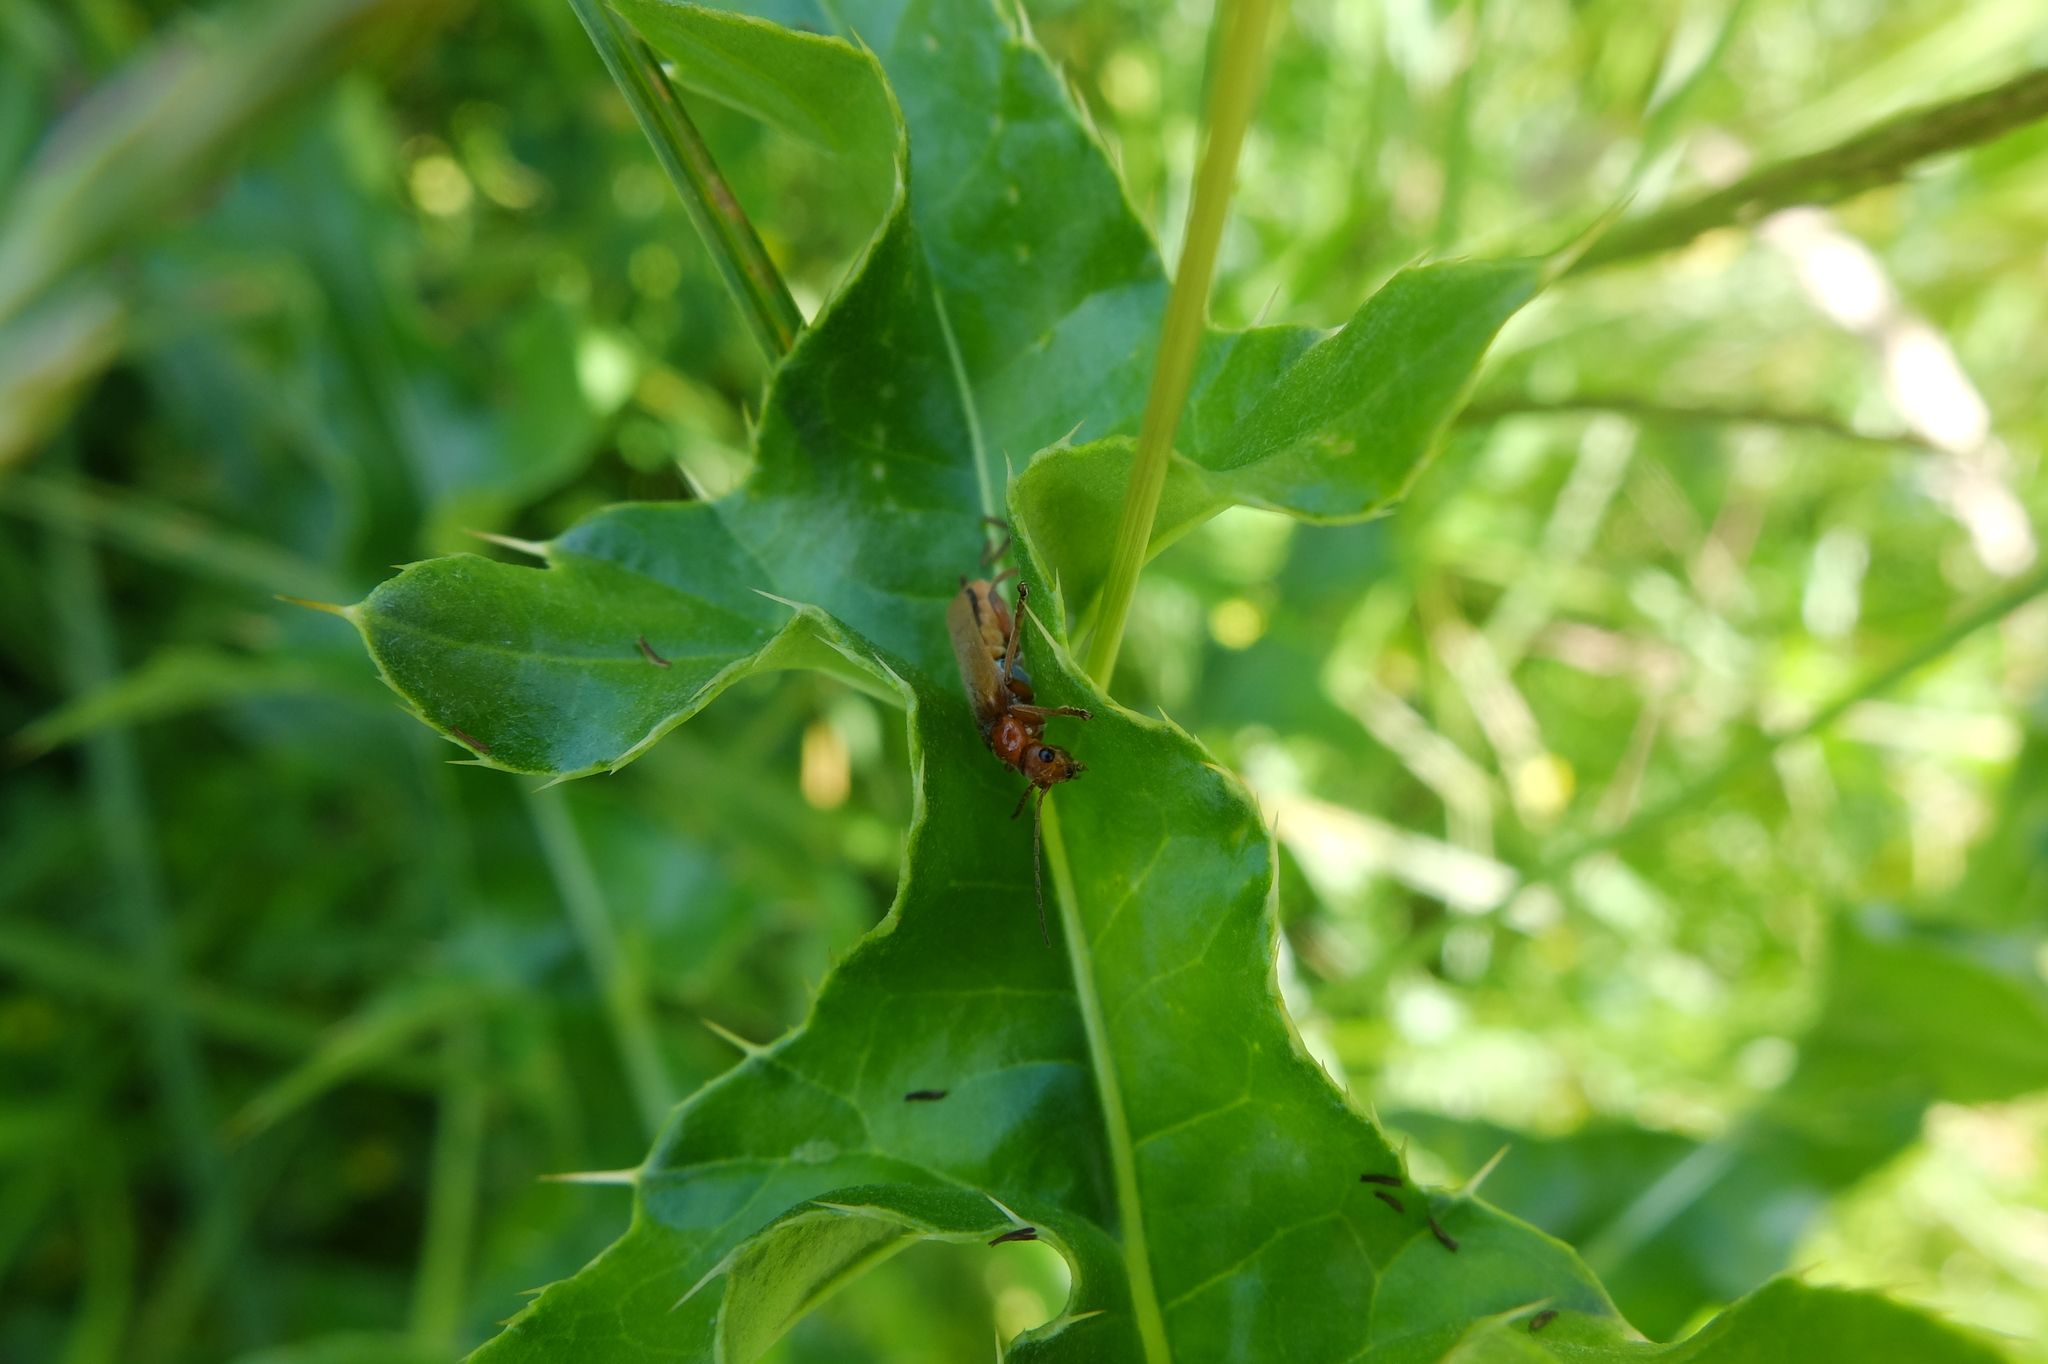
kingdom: Animalia
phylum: Arthropoda
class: Insecta
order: Coleoptera
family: Cantharidae
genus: Cantharis
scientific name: Cantharis livida
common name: Livid soldier beetle
